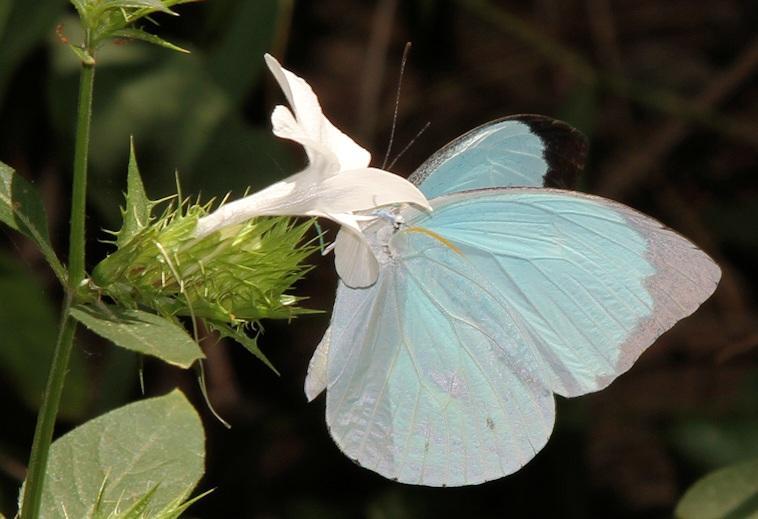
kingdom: Animalia
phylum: Arthropoda
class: Insecta
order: Lepidoptera
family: Pieridae
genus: Nepheronia
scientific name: Nepheronia thalassina
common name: Cambridge vagrant
